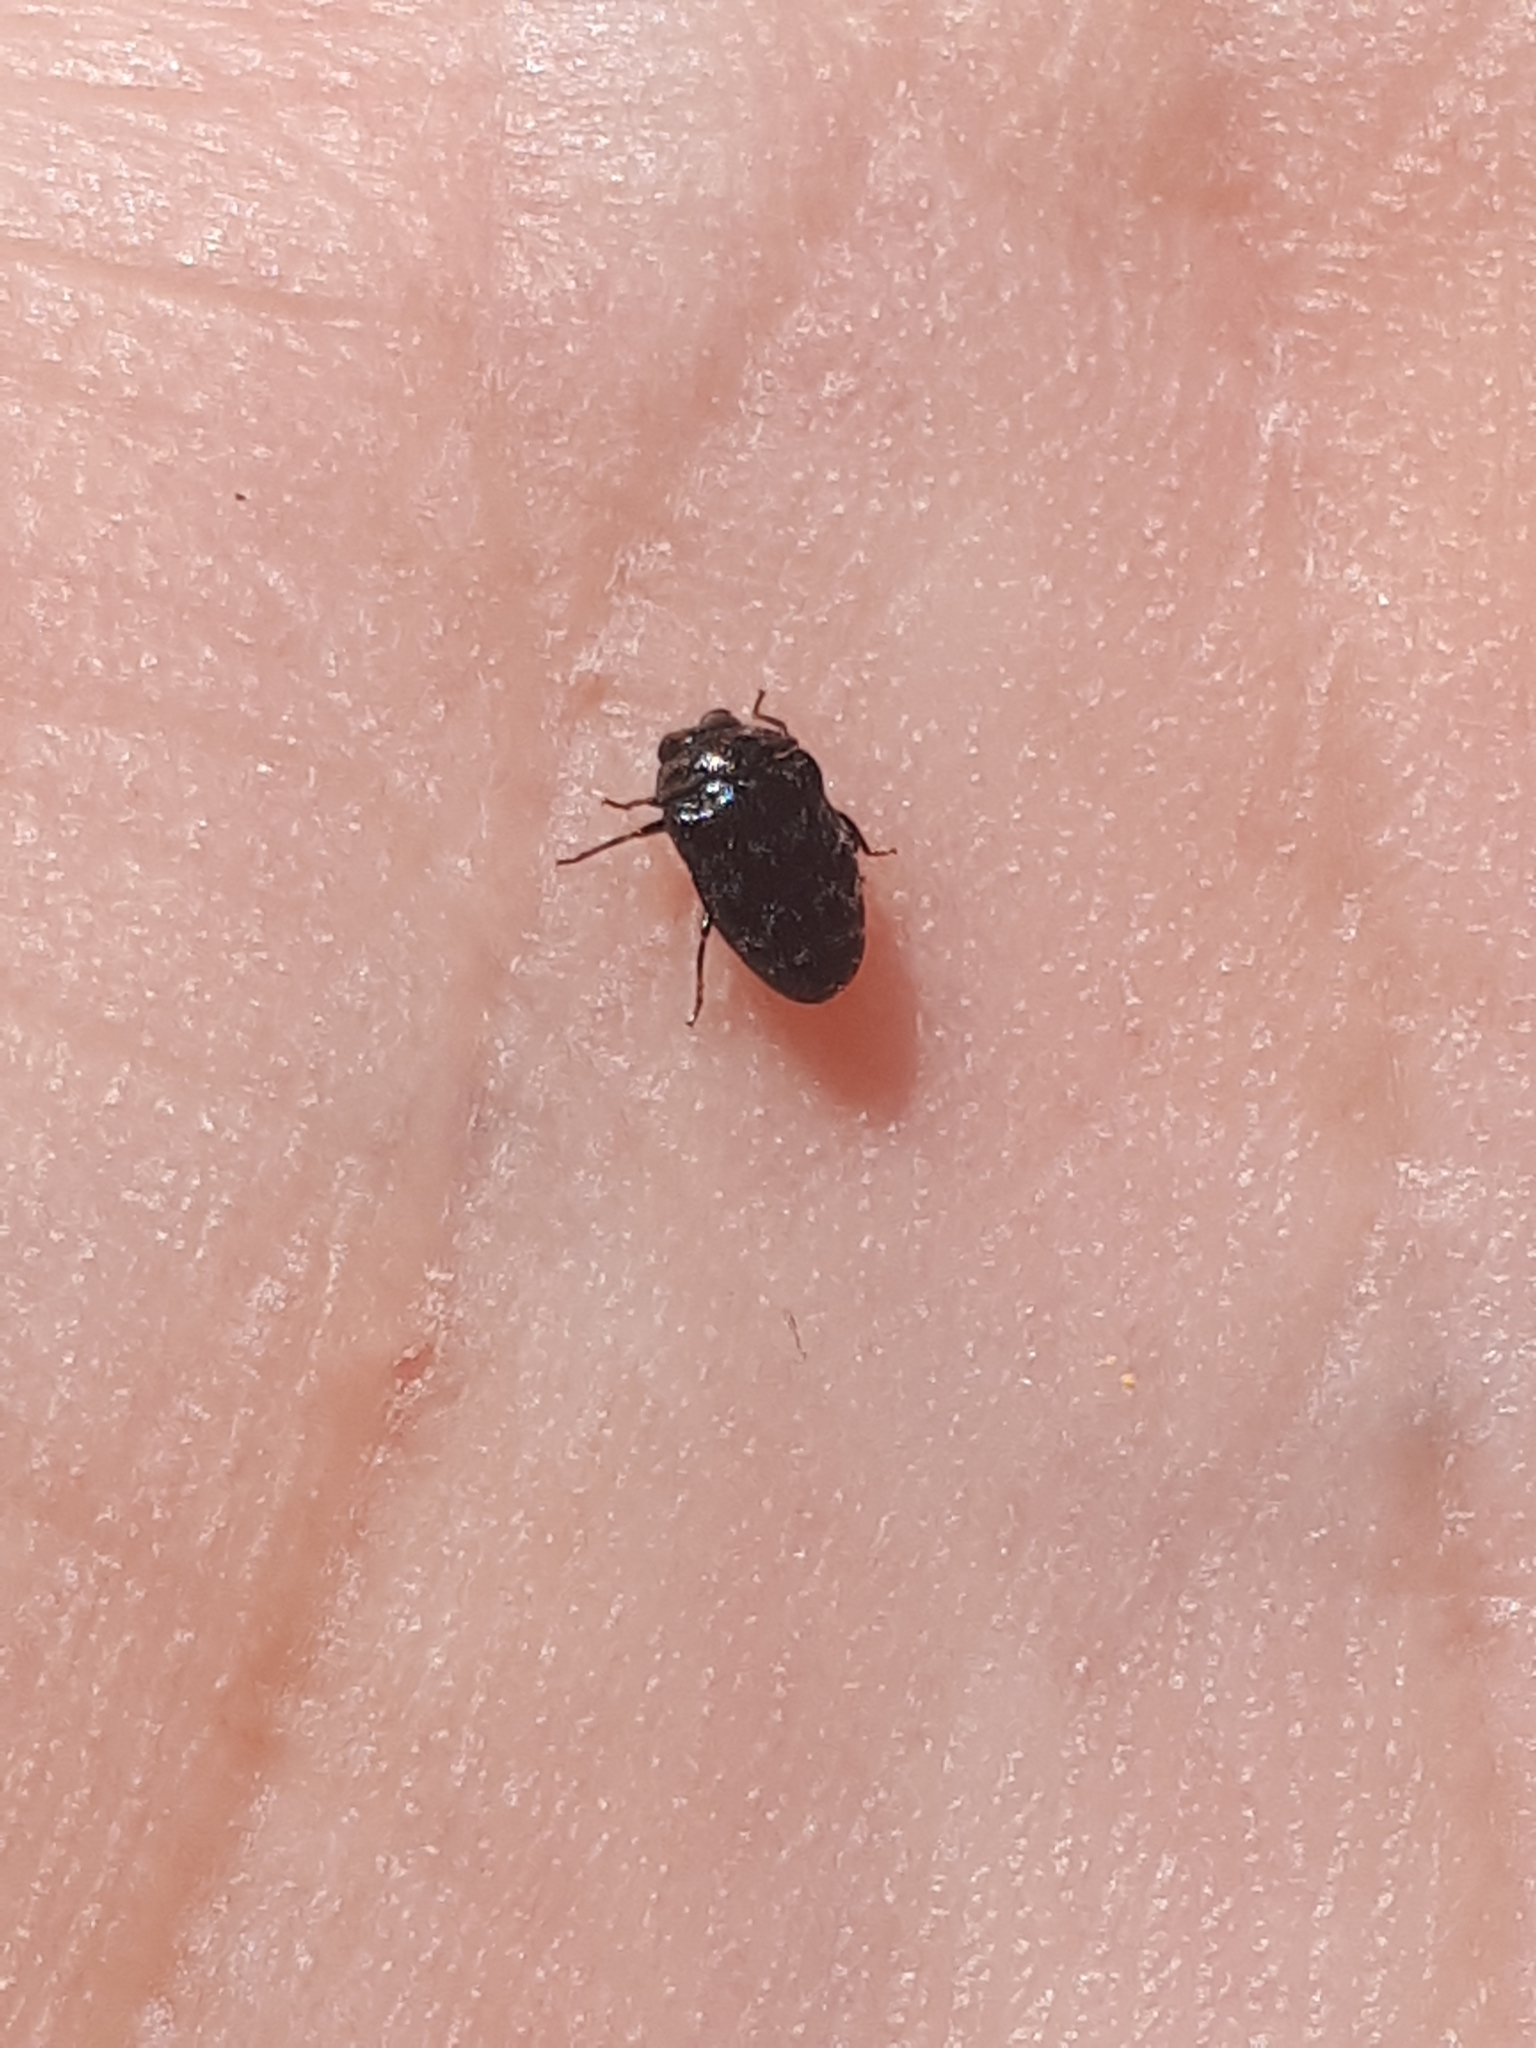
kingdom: Animalia
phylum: Arthropoda
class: Insecta
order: Coleoptera
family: Buprestidae
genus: Trachys
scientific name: Trachys minutus
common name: Metallic wood-boring beetle
